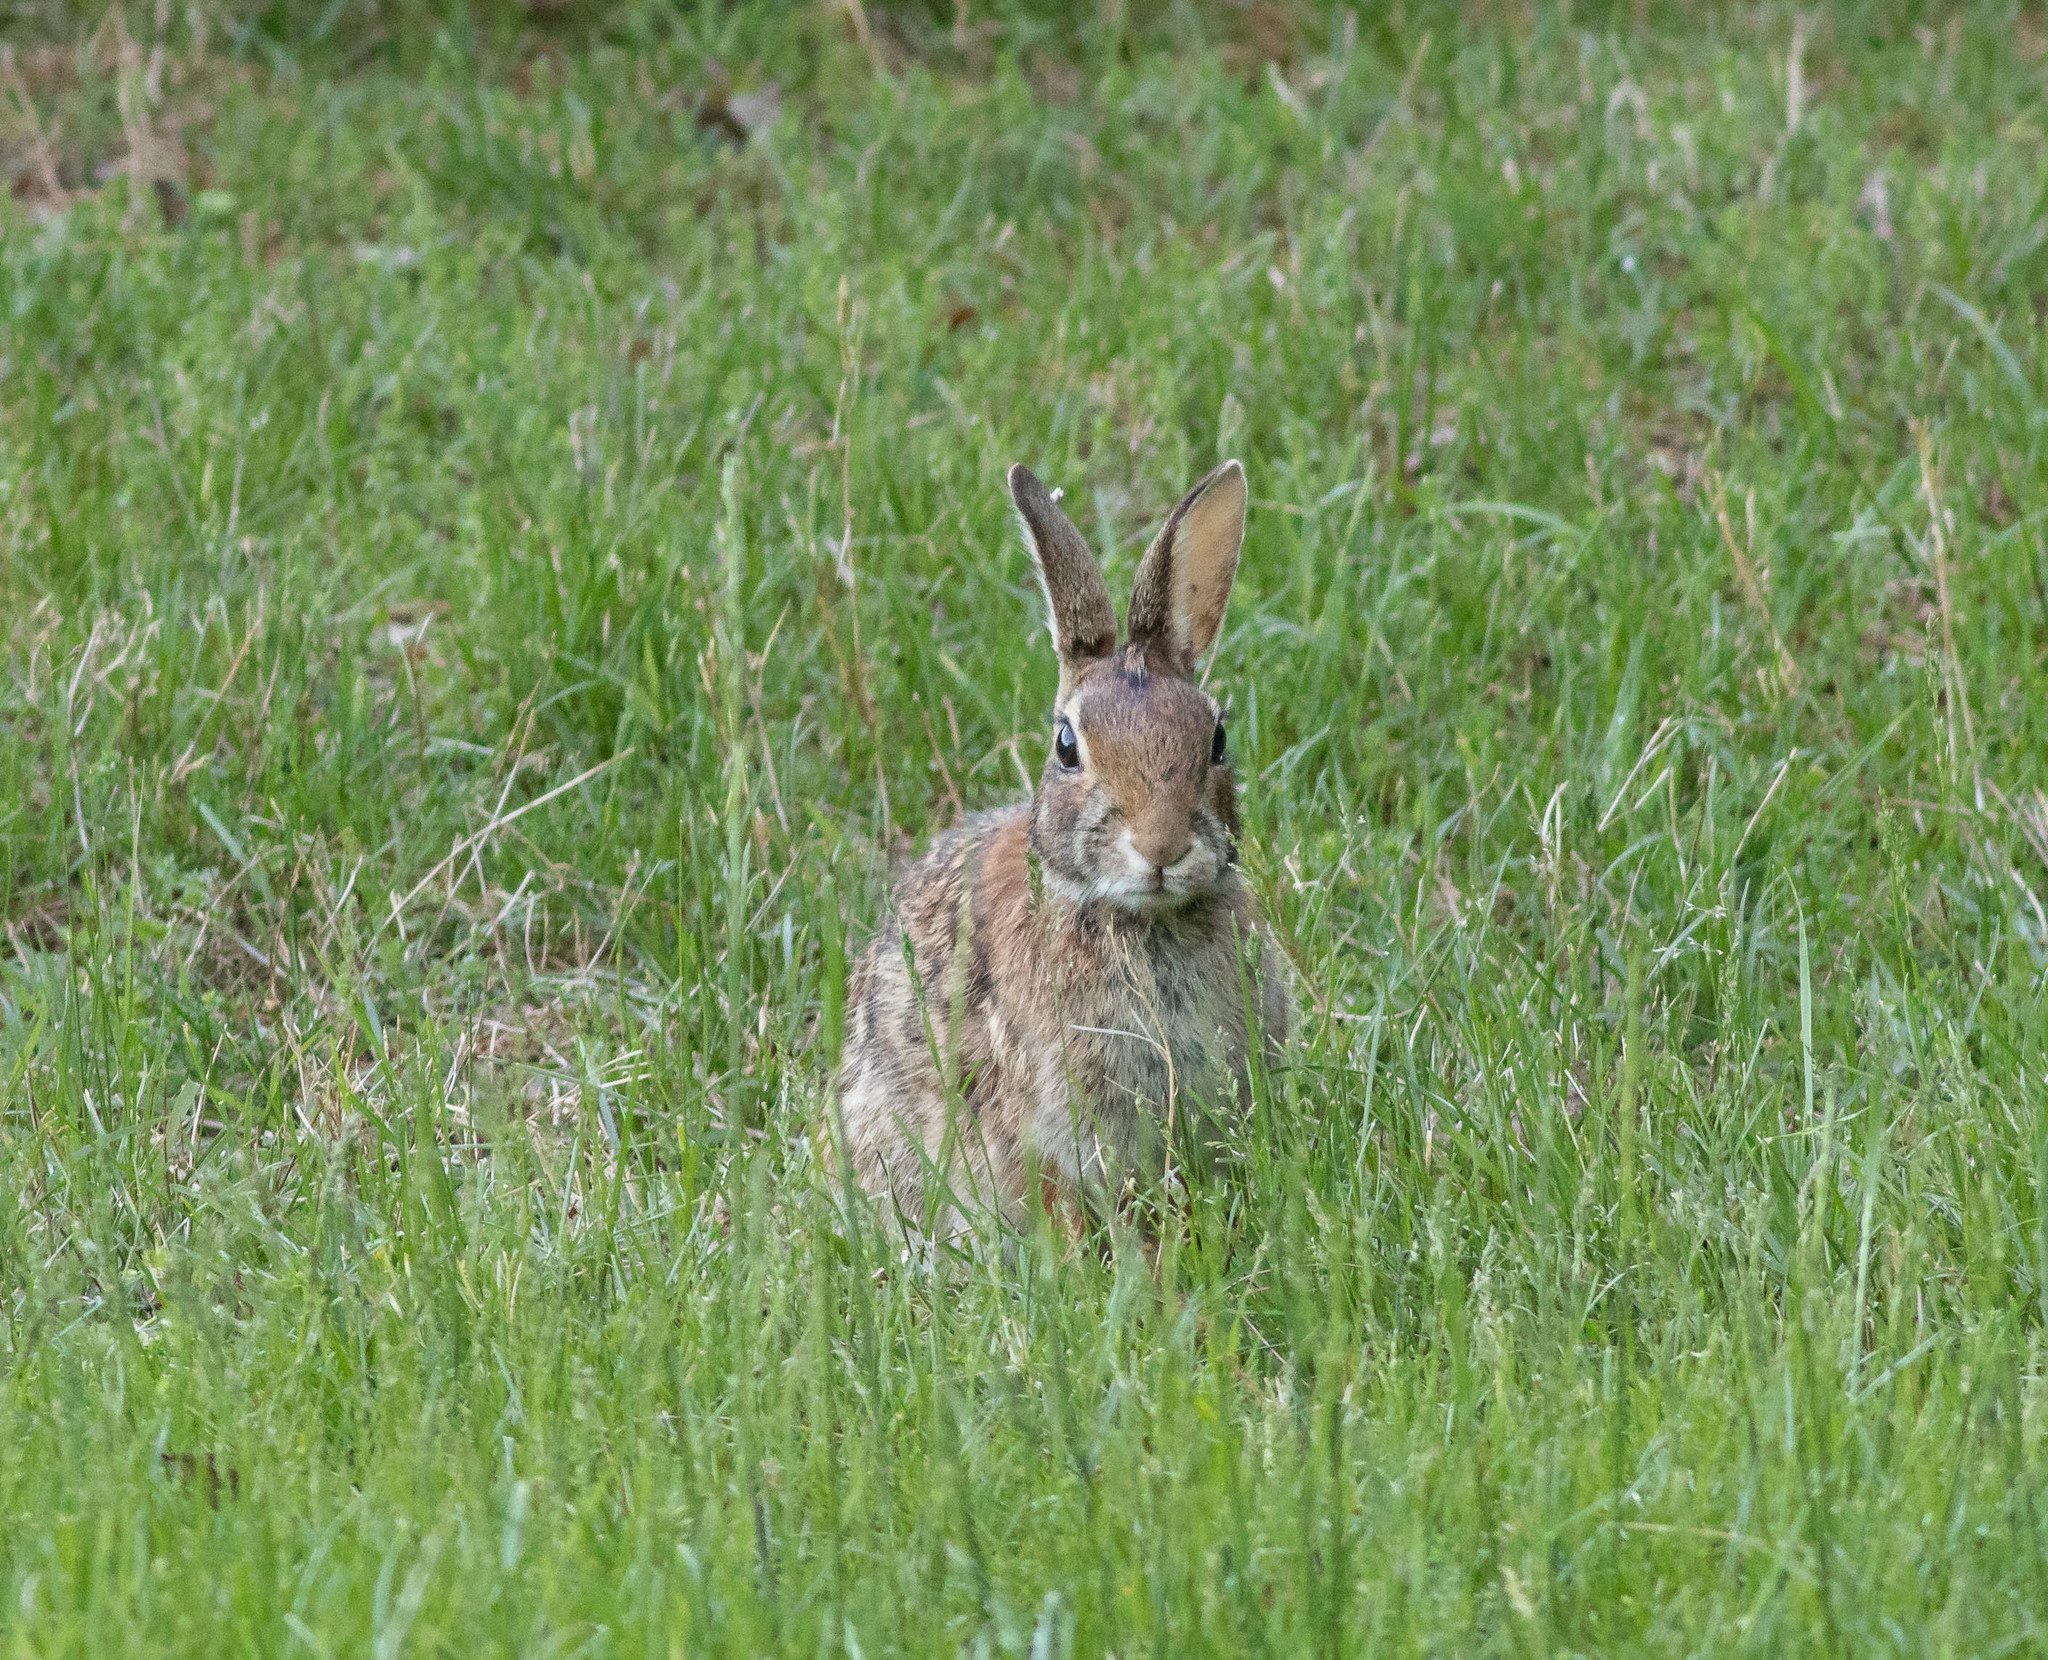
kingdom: Animalia
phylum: Chordata
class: Mammalia
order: Lagomorpha
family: Leporidae
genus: Sylvilagus
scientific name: Sylvilagus floridanus
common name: Eastern cottontail
